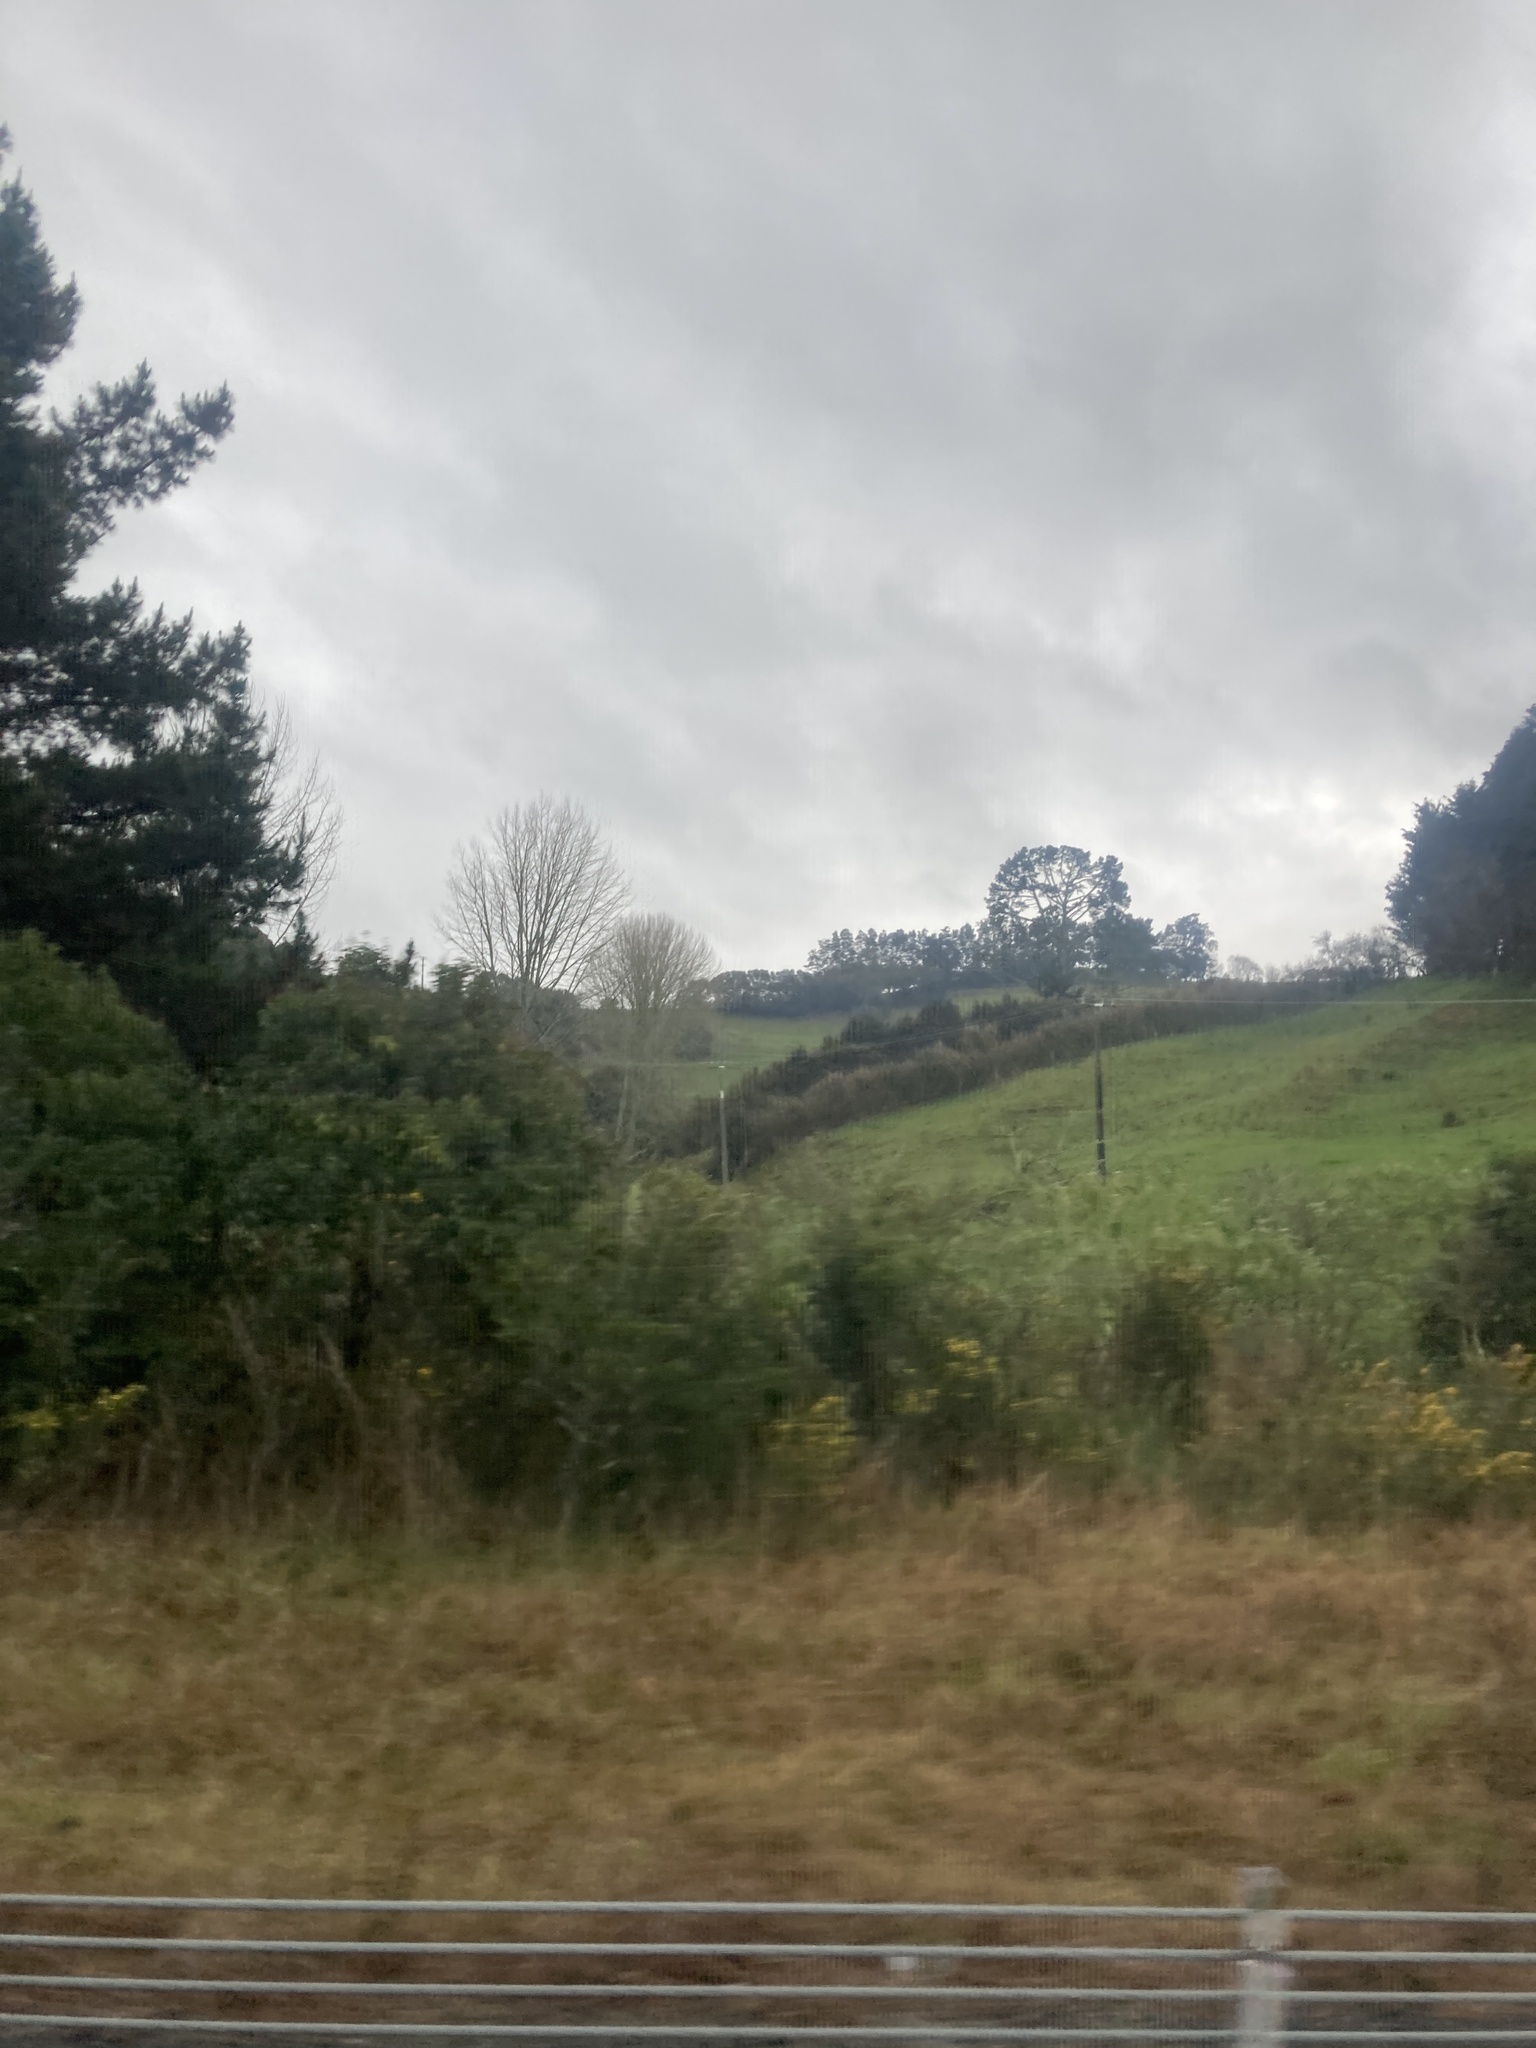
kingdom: Plantae
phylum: Tracheophyta
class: Magnoliopsida
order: Fabales
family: Fabaceae
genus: Ulex
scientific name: Ulex europaeus
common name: Common gorse
